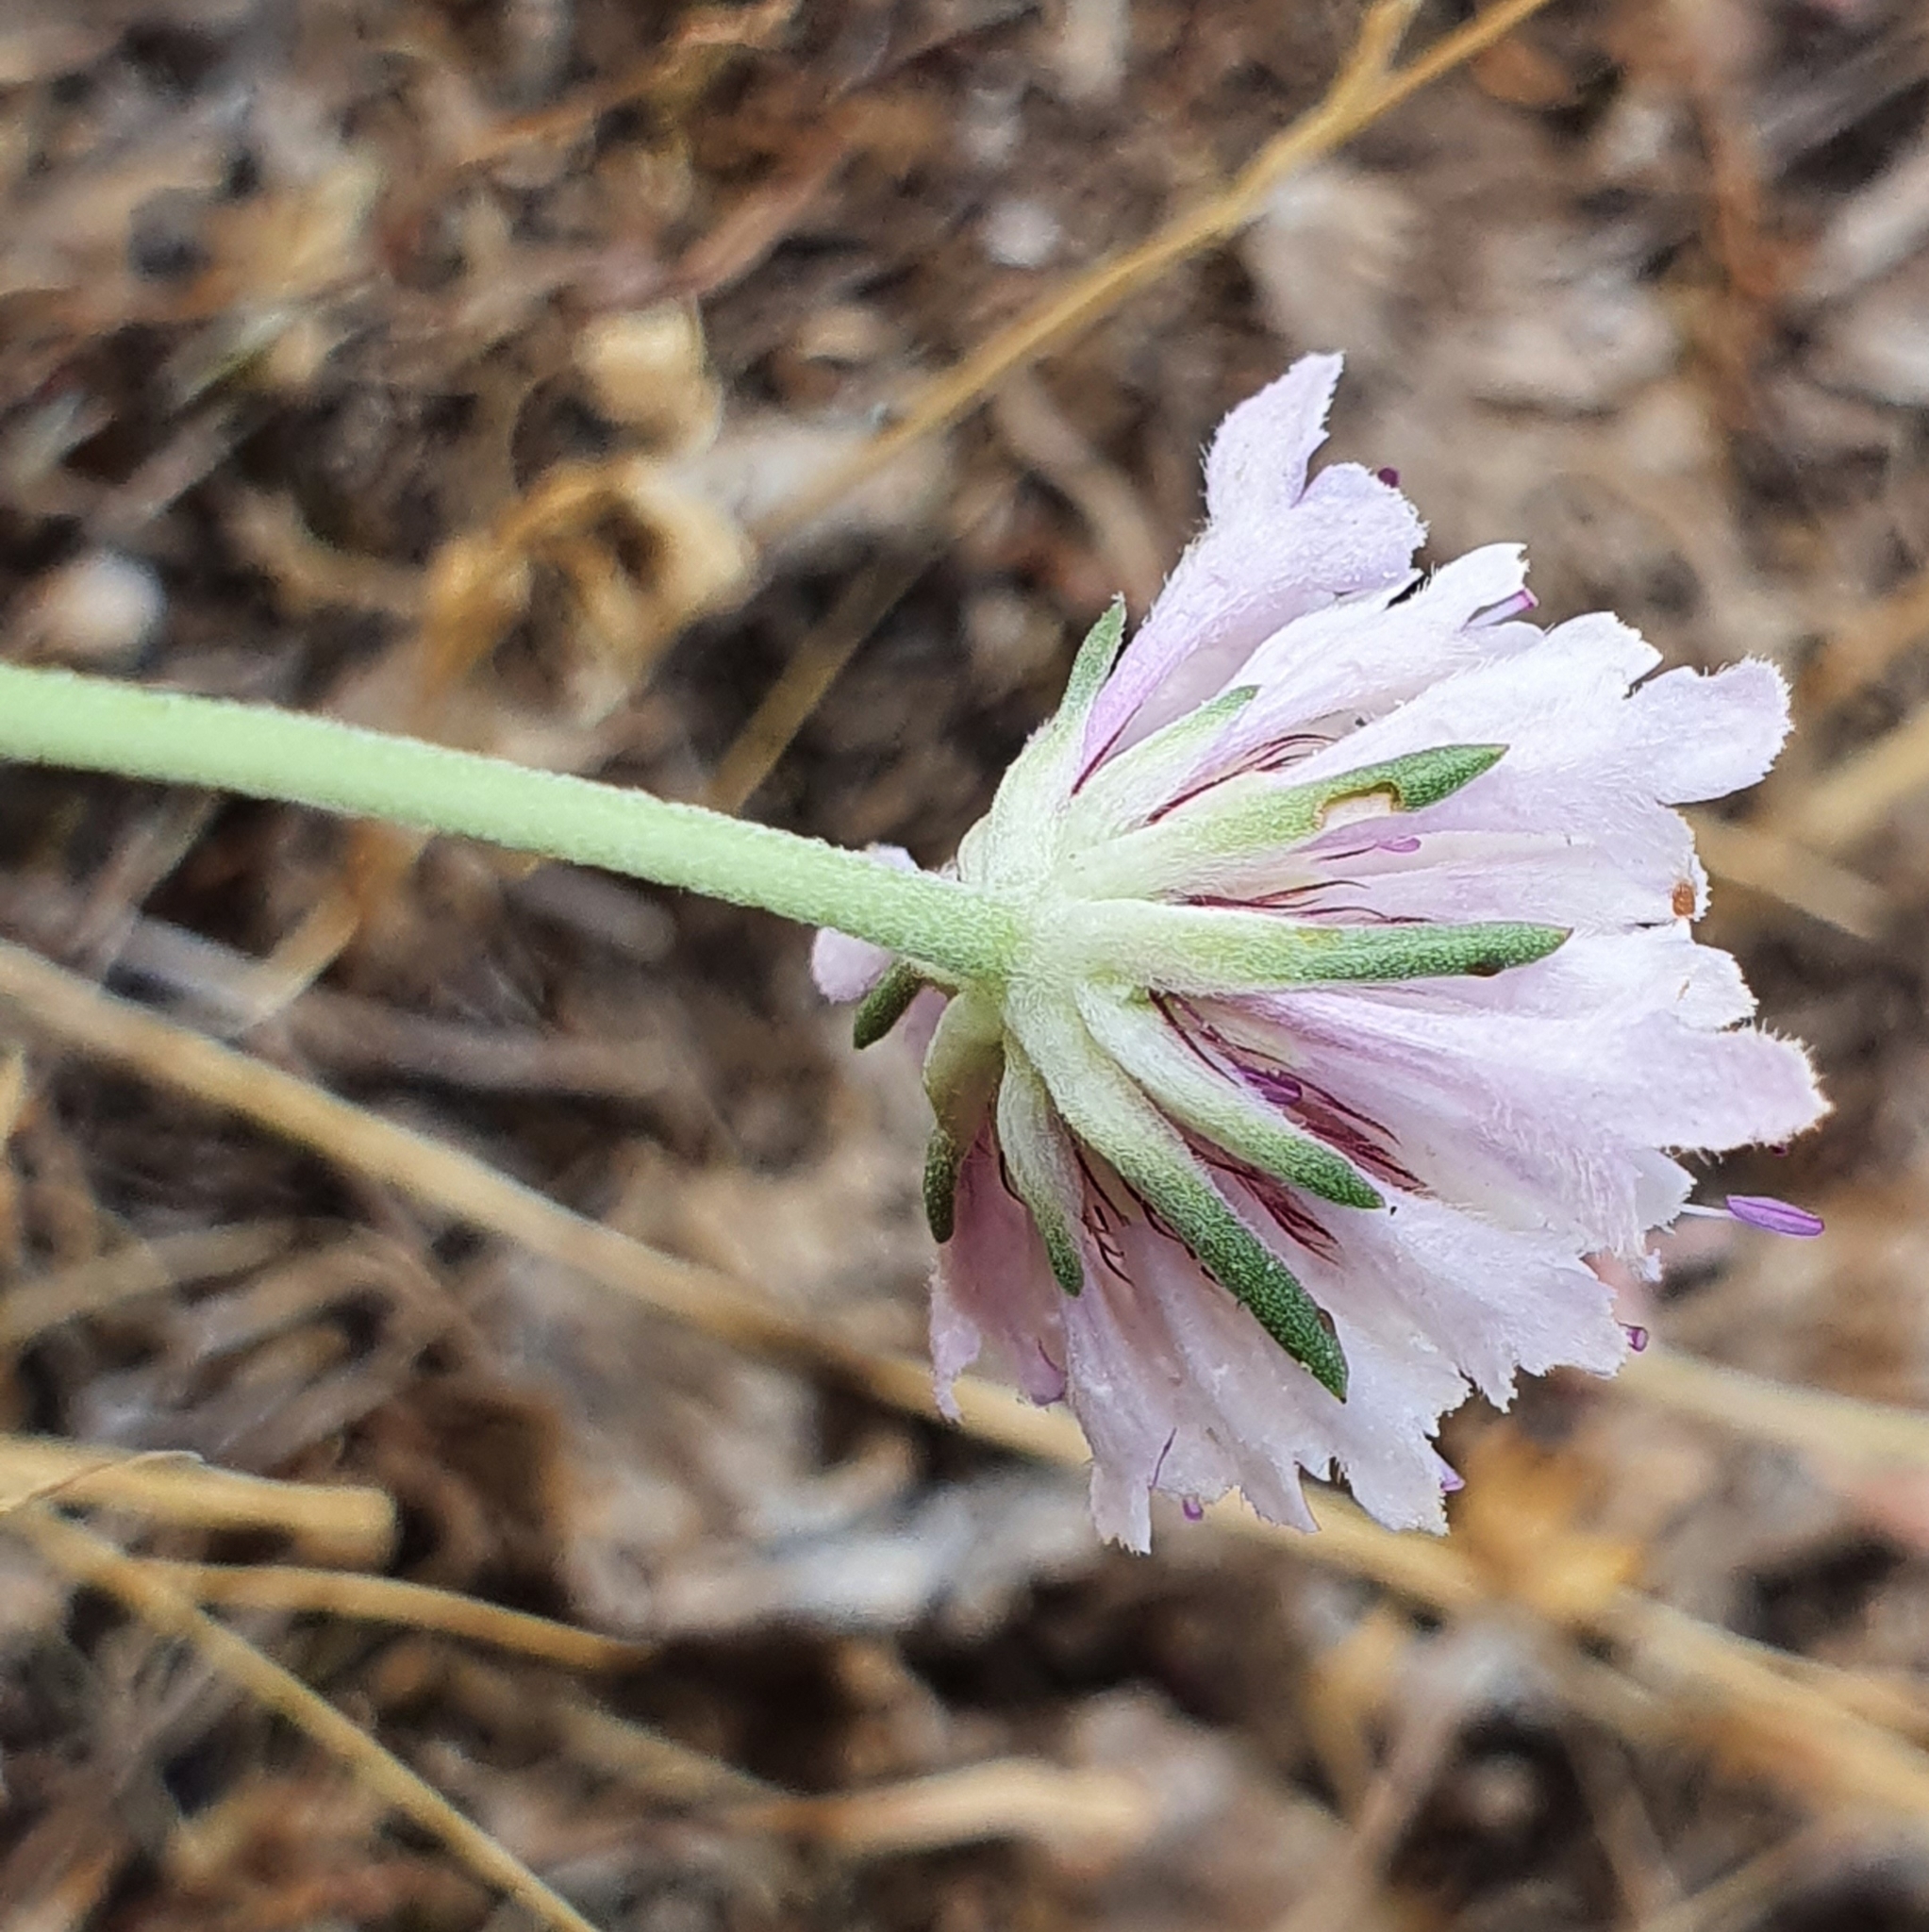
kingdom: Plantae
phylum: Tracheophyta
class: Magnoliopsida
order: Dipsacales
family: Caprifoliaceae
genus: Sixalix
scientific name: Sixalix maritima
